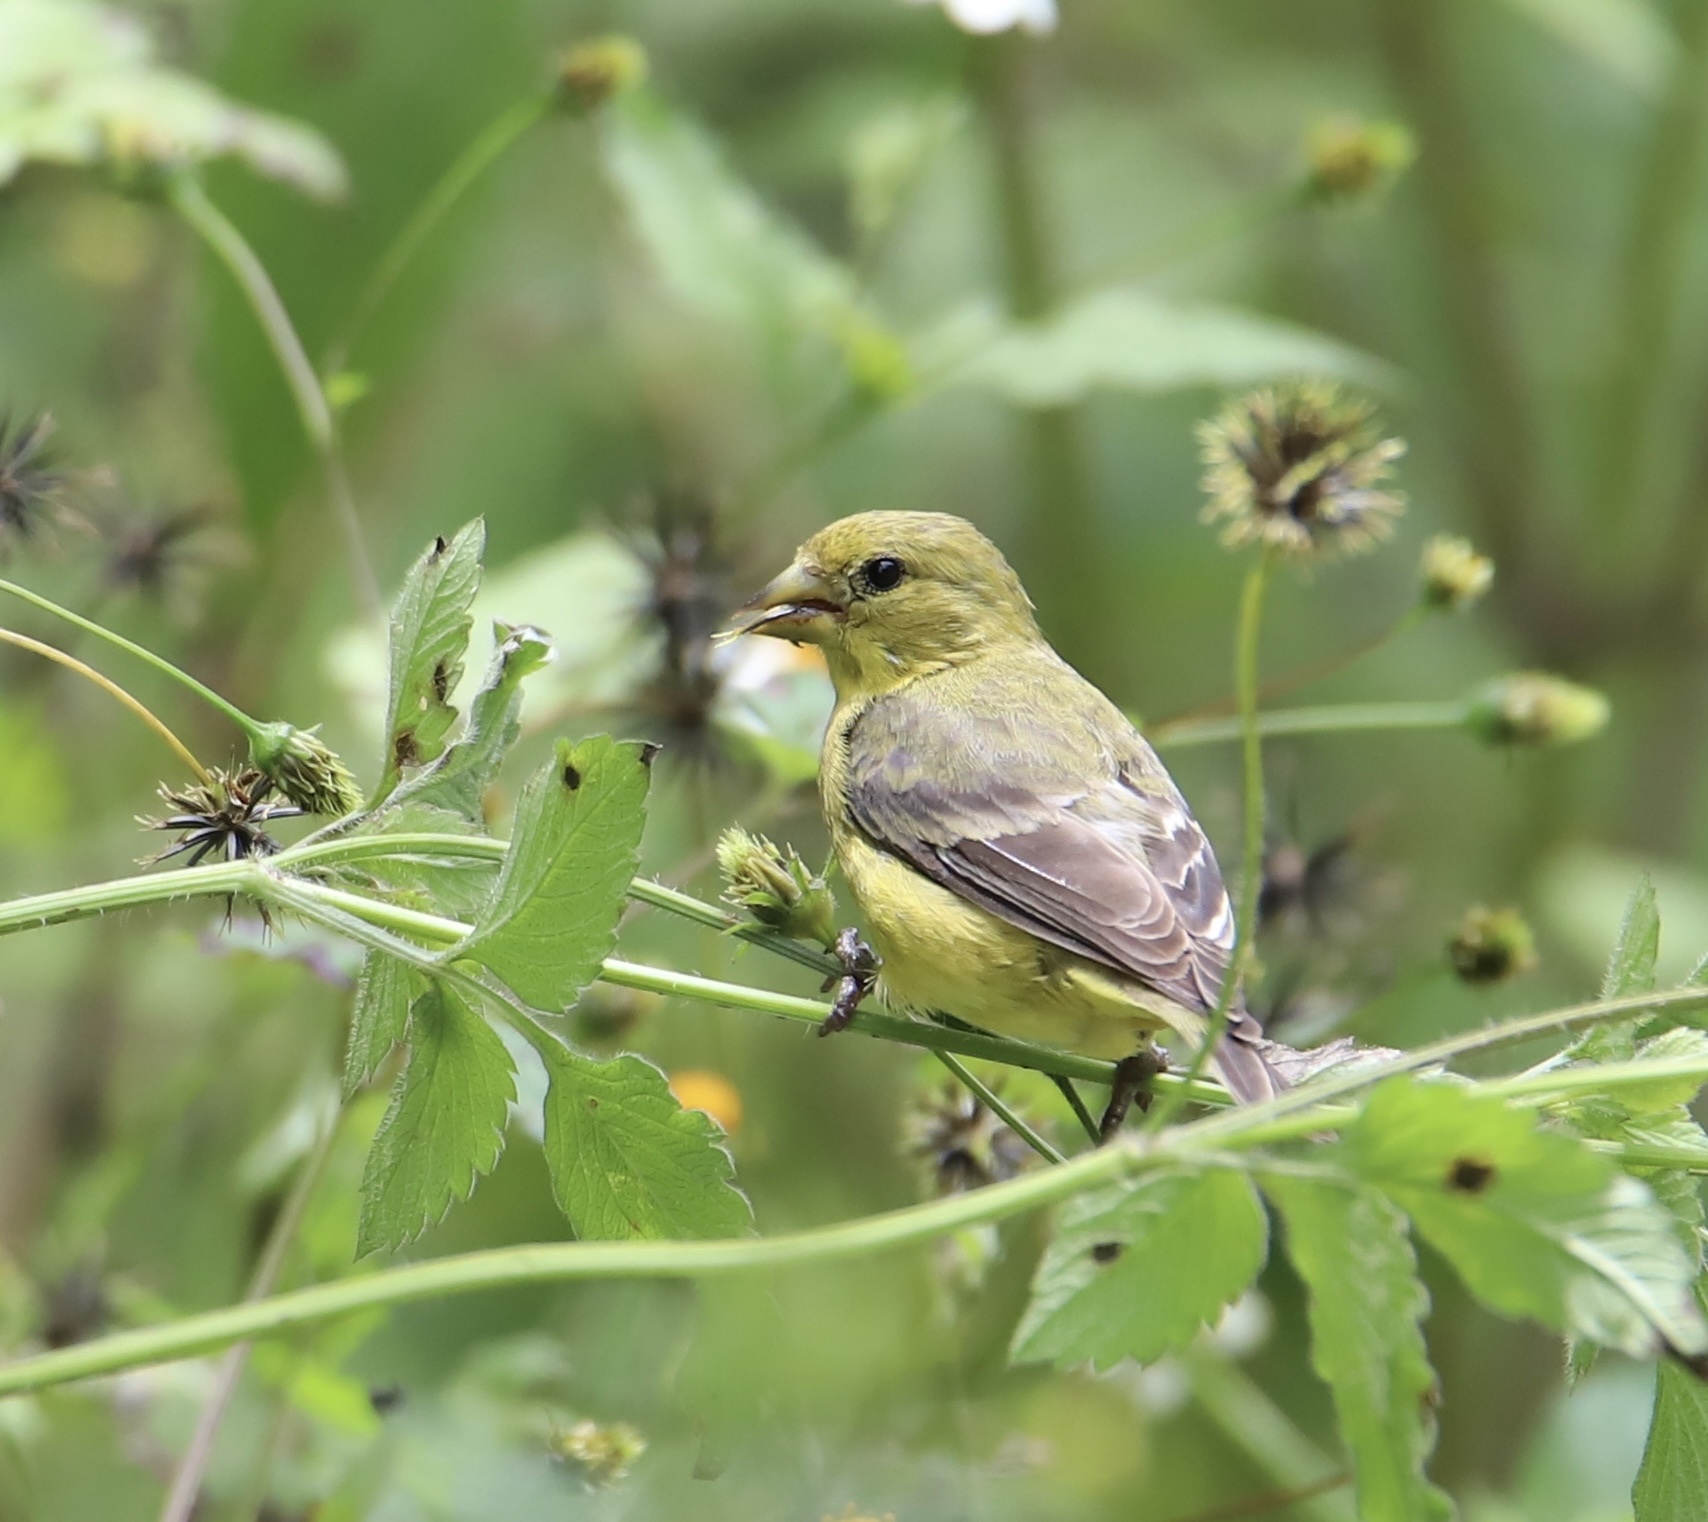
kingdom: Animalia
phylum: Chordata
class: Aves
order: Passeriformes
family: Fringillidae
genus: Spinus
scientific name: Spinus psaltria
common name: Lesser goldfinch
